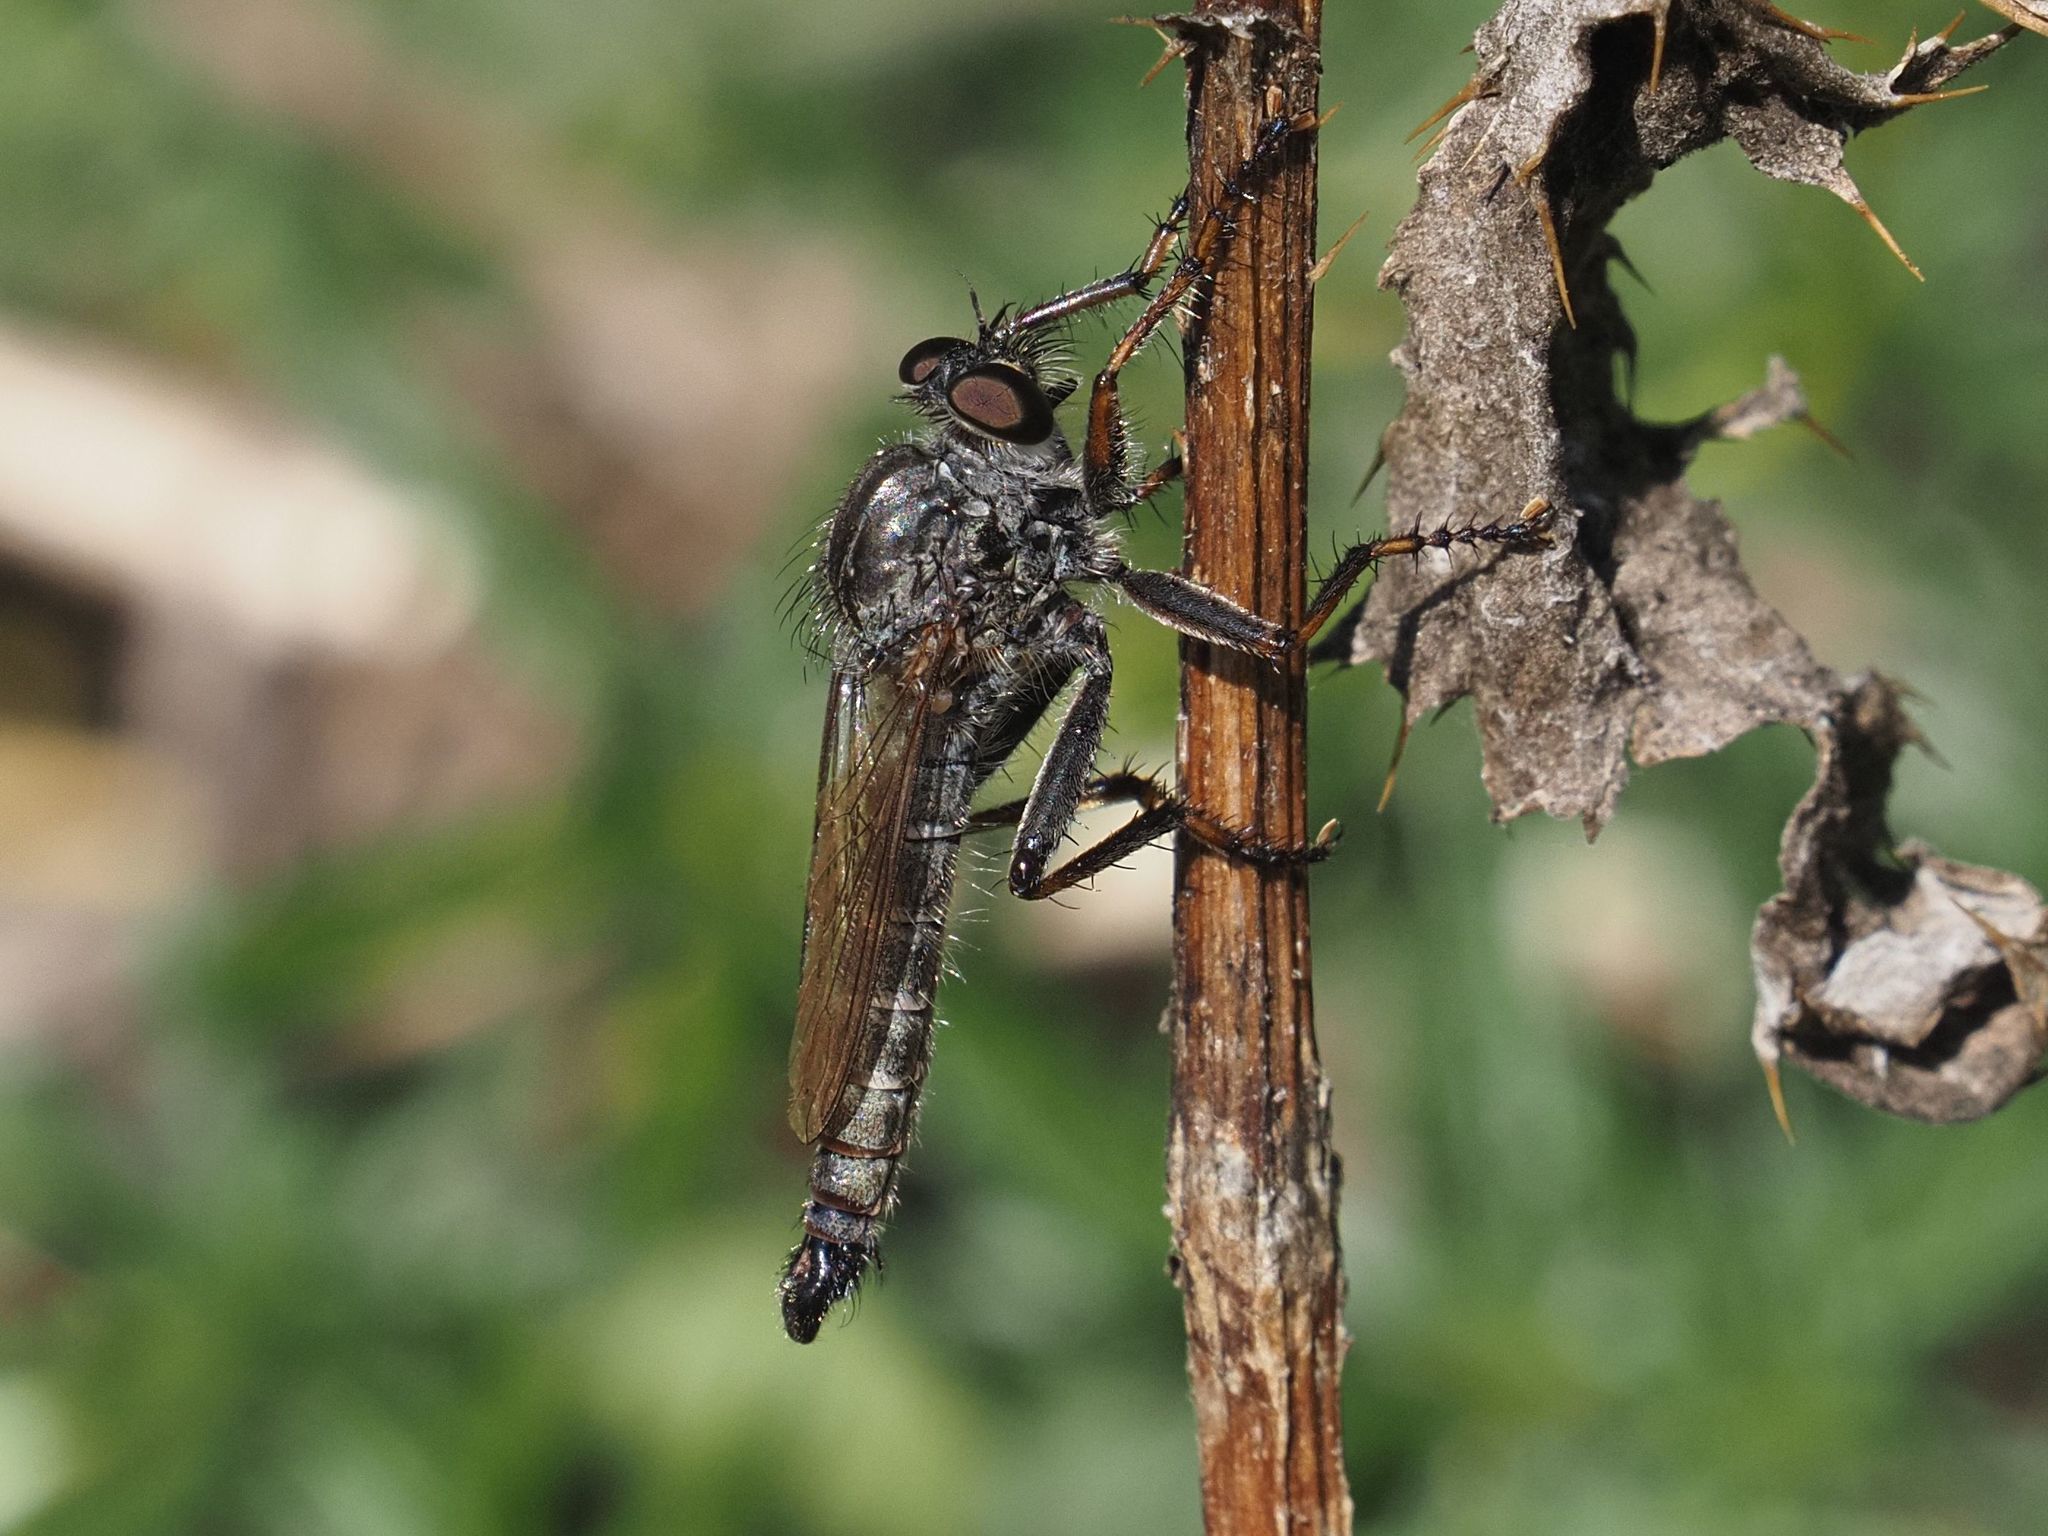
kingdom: Animalia
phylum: Arthropoda
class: Insecta
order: Diptera
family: Asilidae
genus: Machimus
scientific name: Machimus atricapillus
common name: Kite-tailed robberfly
